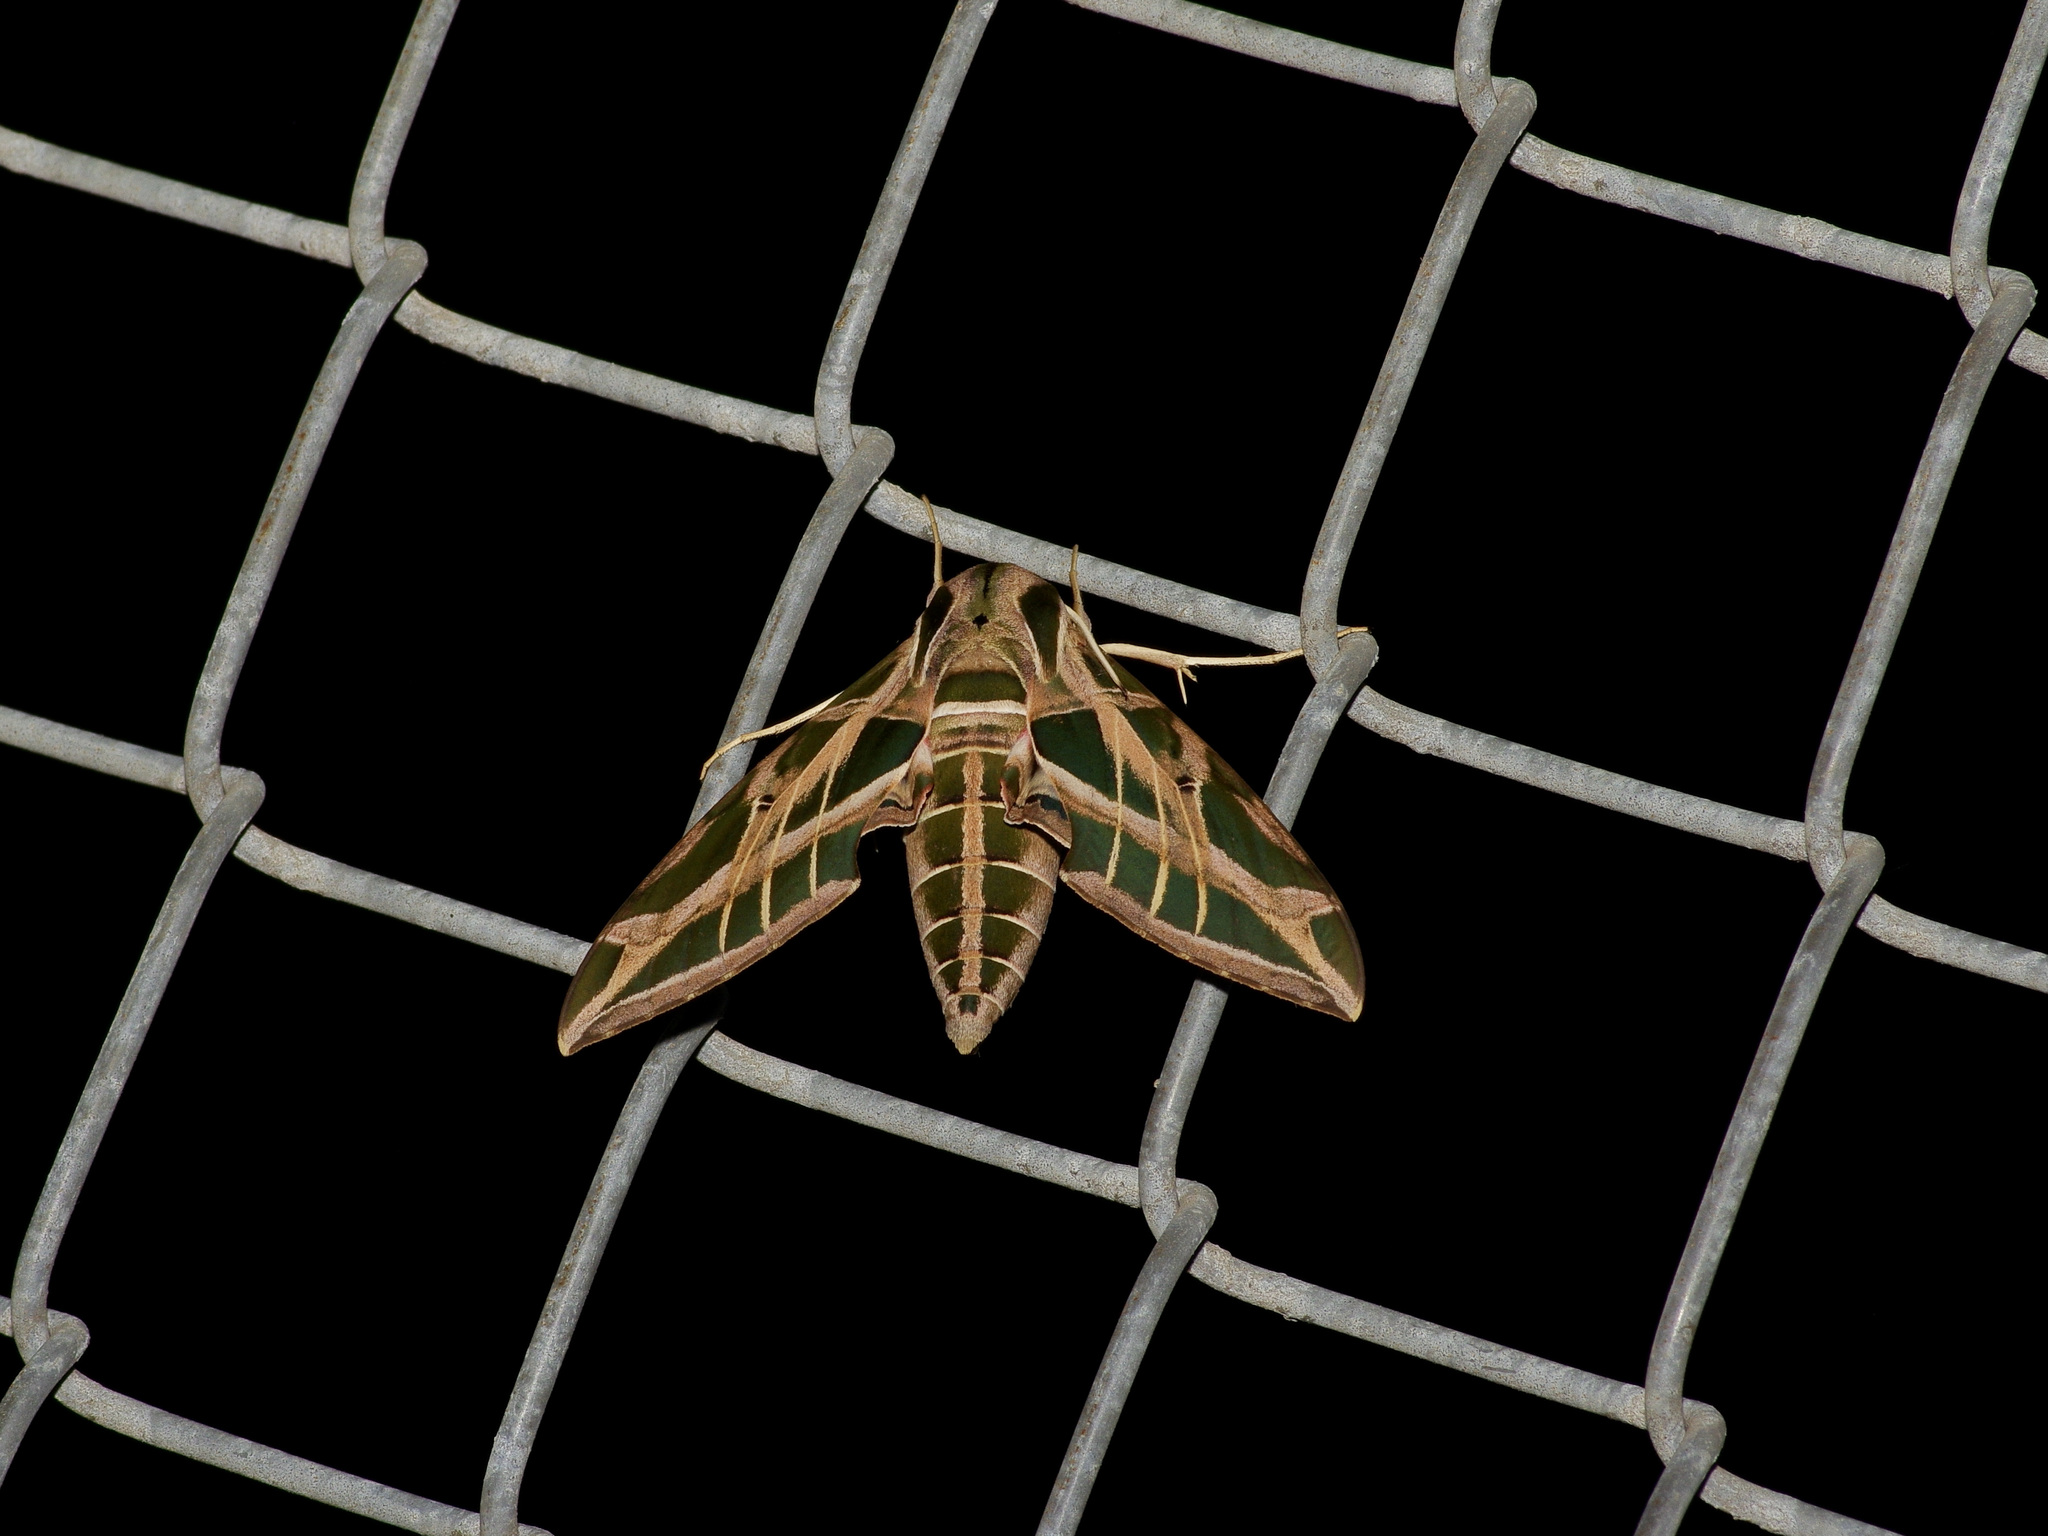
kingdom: Animalia
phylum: Arthropoda
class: Insecta
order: Lepidoptera
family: Sphingidae
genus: Eumorpha
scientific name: Eumorpha vitis
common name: Vine sphinx
